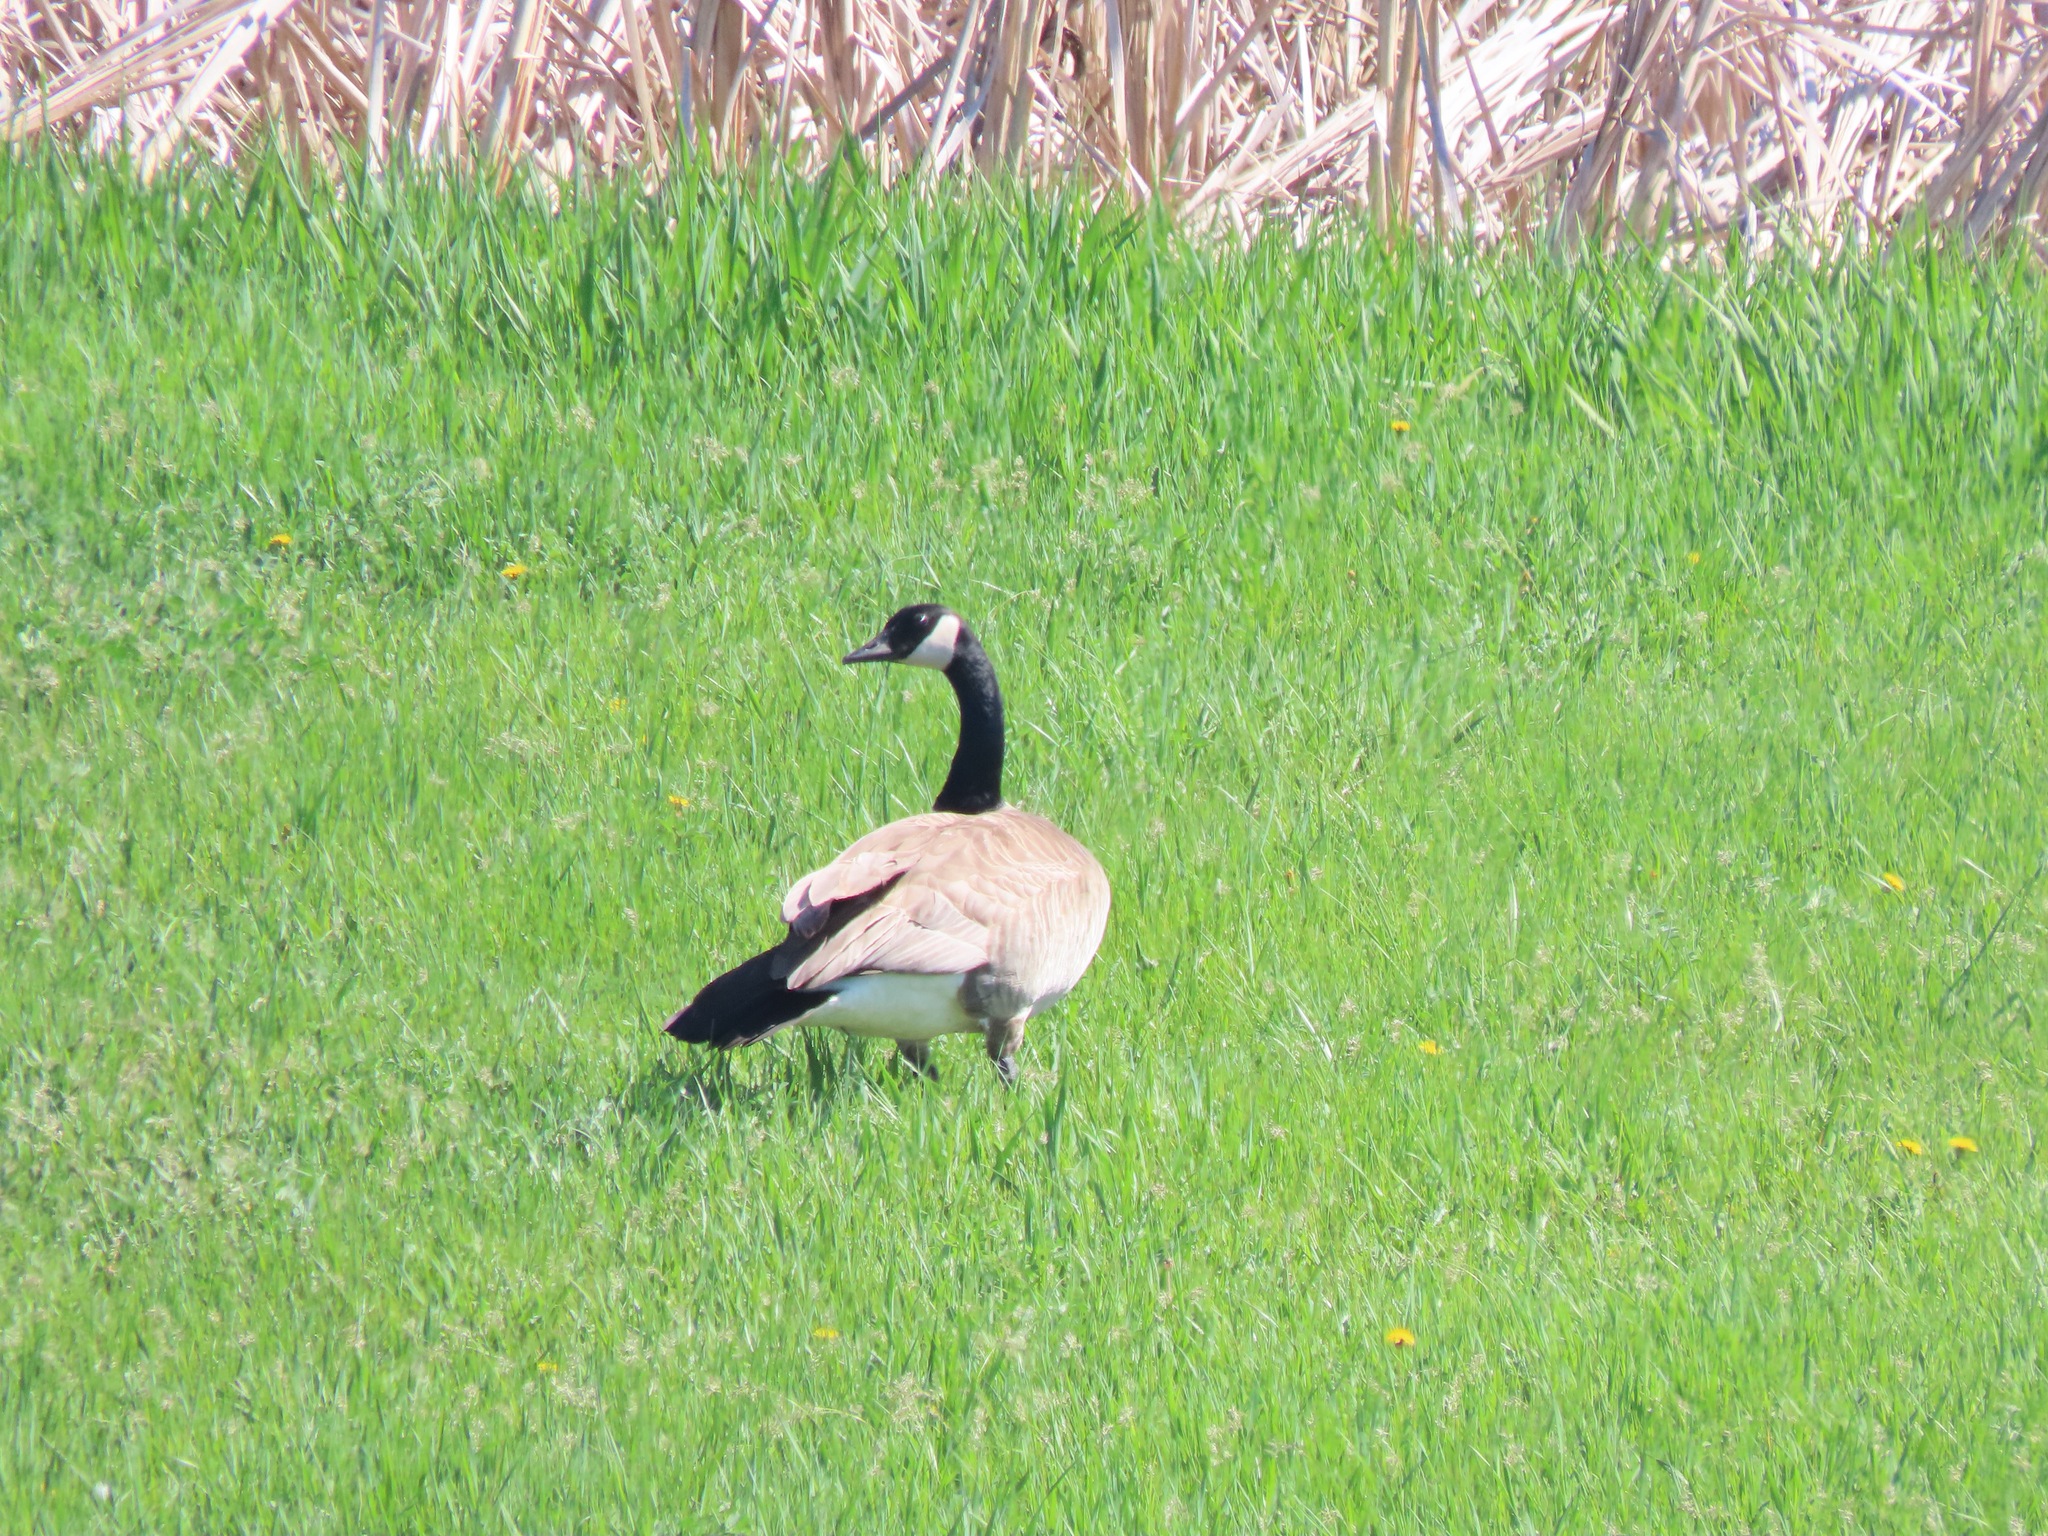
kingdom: Animalia
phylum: Chordata
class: Aves
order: Anseriformes
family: Anatidae
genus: Branta
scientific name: Branta canadensis
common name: Canada goose
